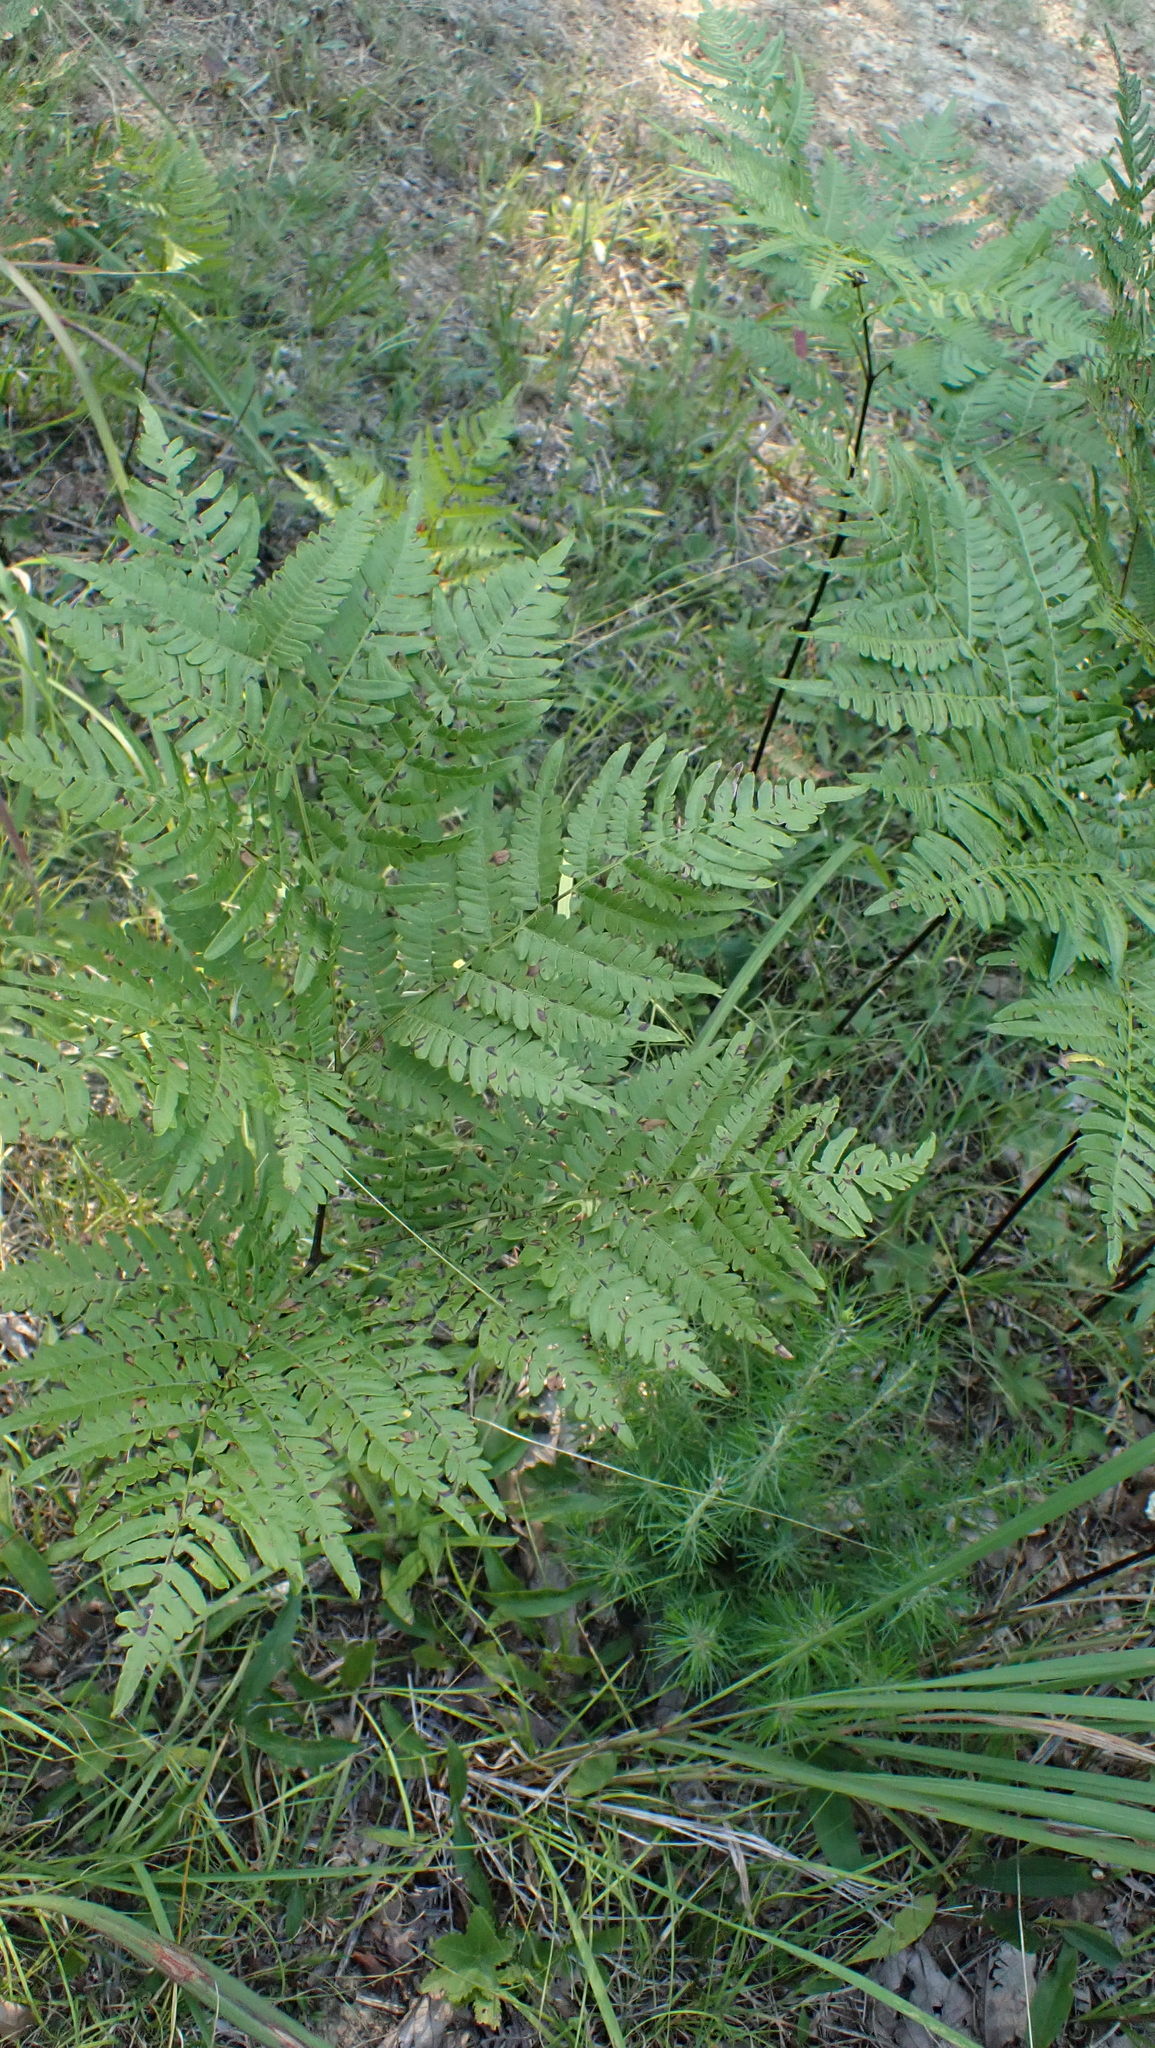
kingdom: Plantae
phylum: Tracheophyta
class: Polypodiopsida
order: Polypodiales
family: Dennstaedtiaceae
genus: Pteridium
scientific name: Pteridium aquilinum
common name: Bracken
